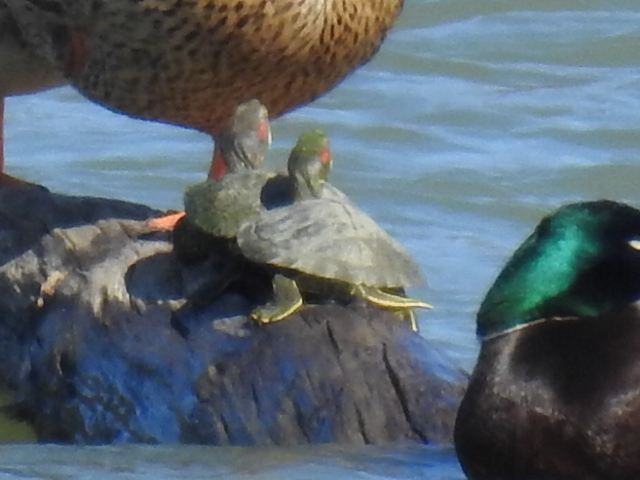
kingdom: Animalia
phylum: Chordata
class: Testudines
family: Emydidae
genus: Trachemys
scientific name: Trachemys scripta
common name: Slider
